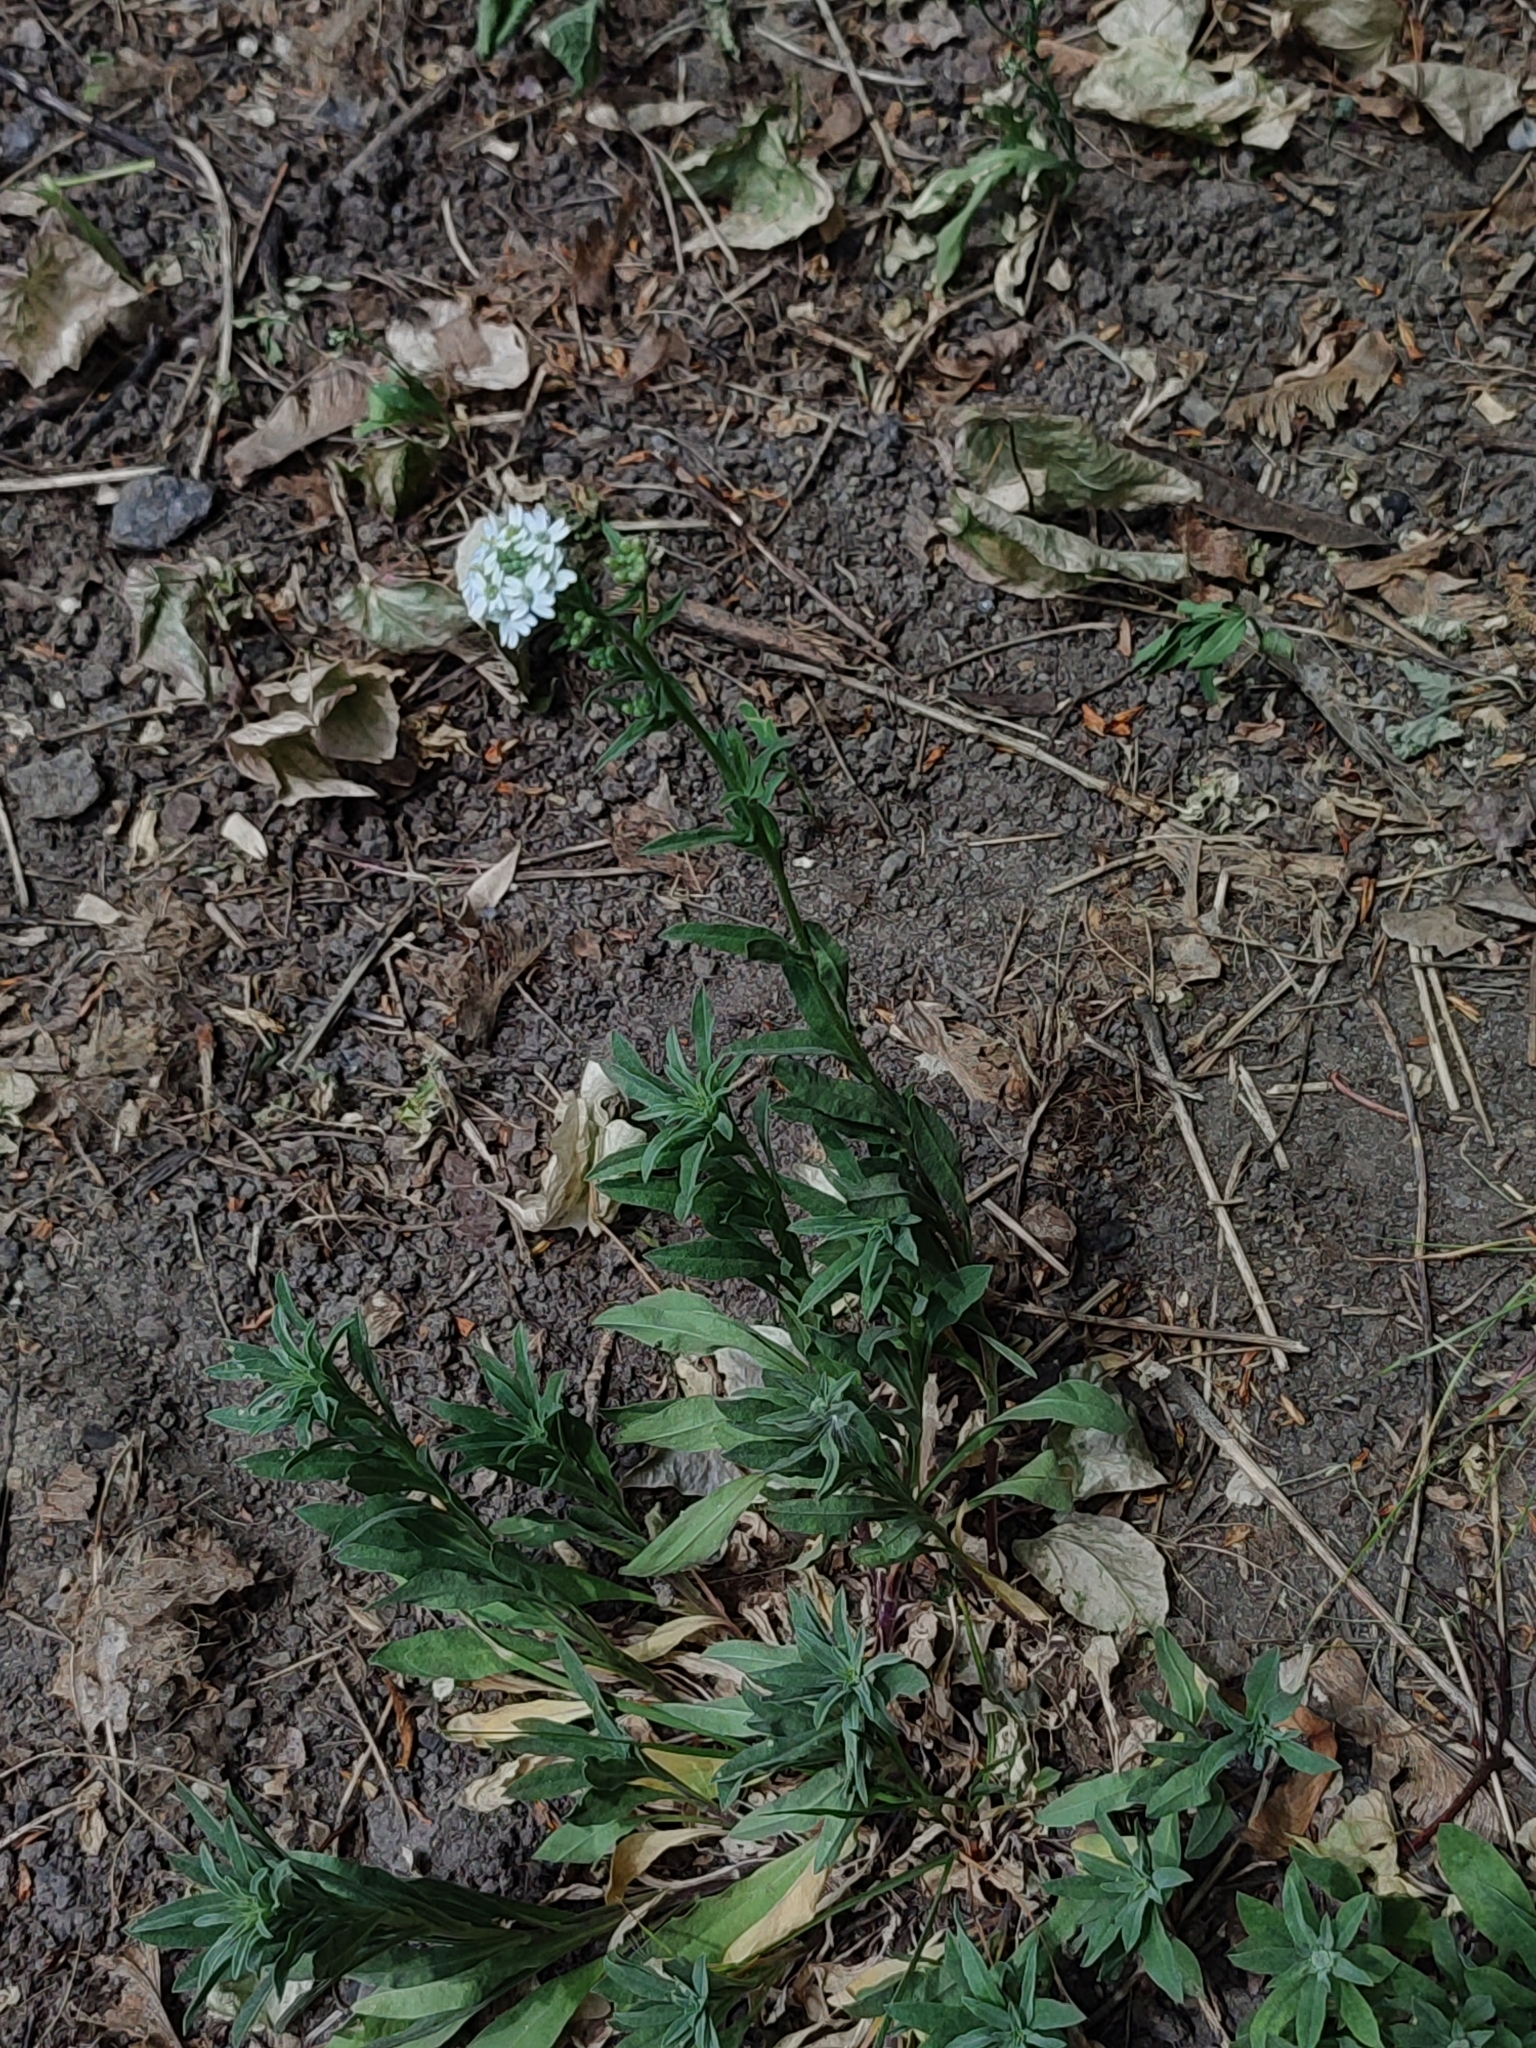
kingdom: Plantae
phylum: Tracheophyta
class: Magnoliopsida
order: Brassicales
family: Brassicaceae
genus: Berteroa
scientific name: Berteroa incana
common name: Hoary alison
